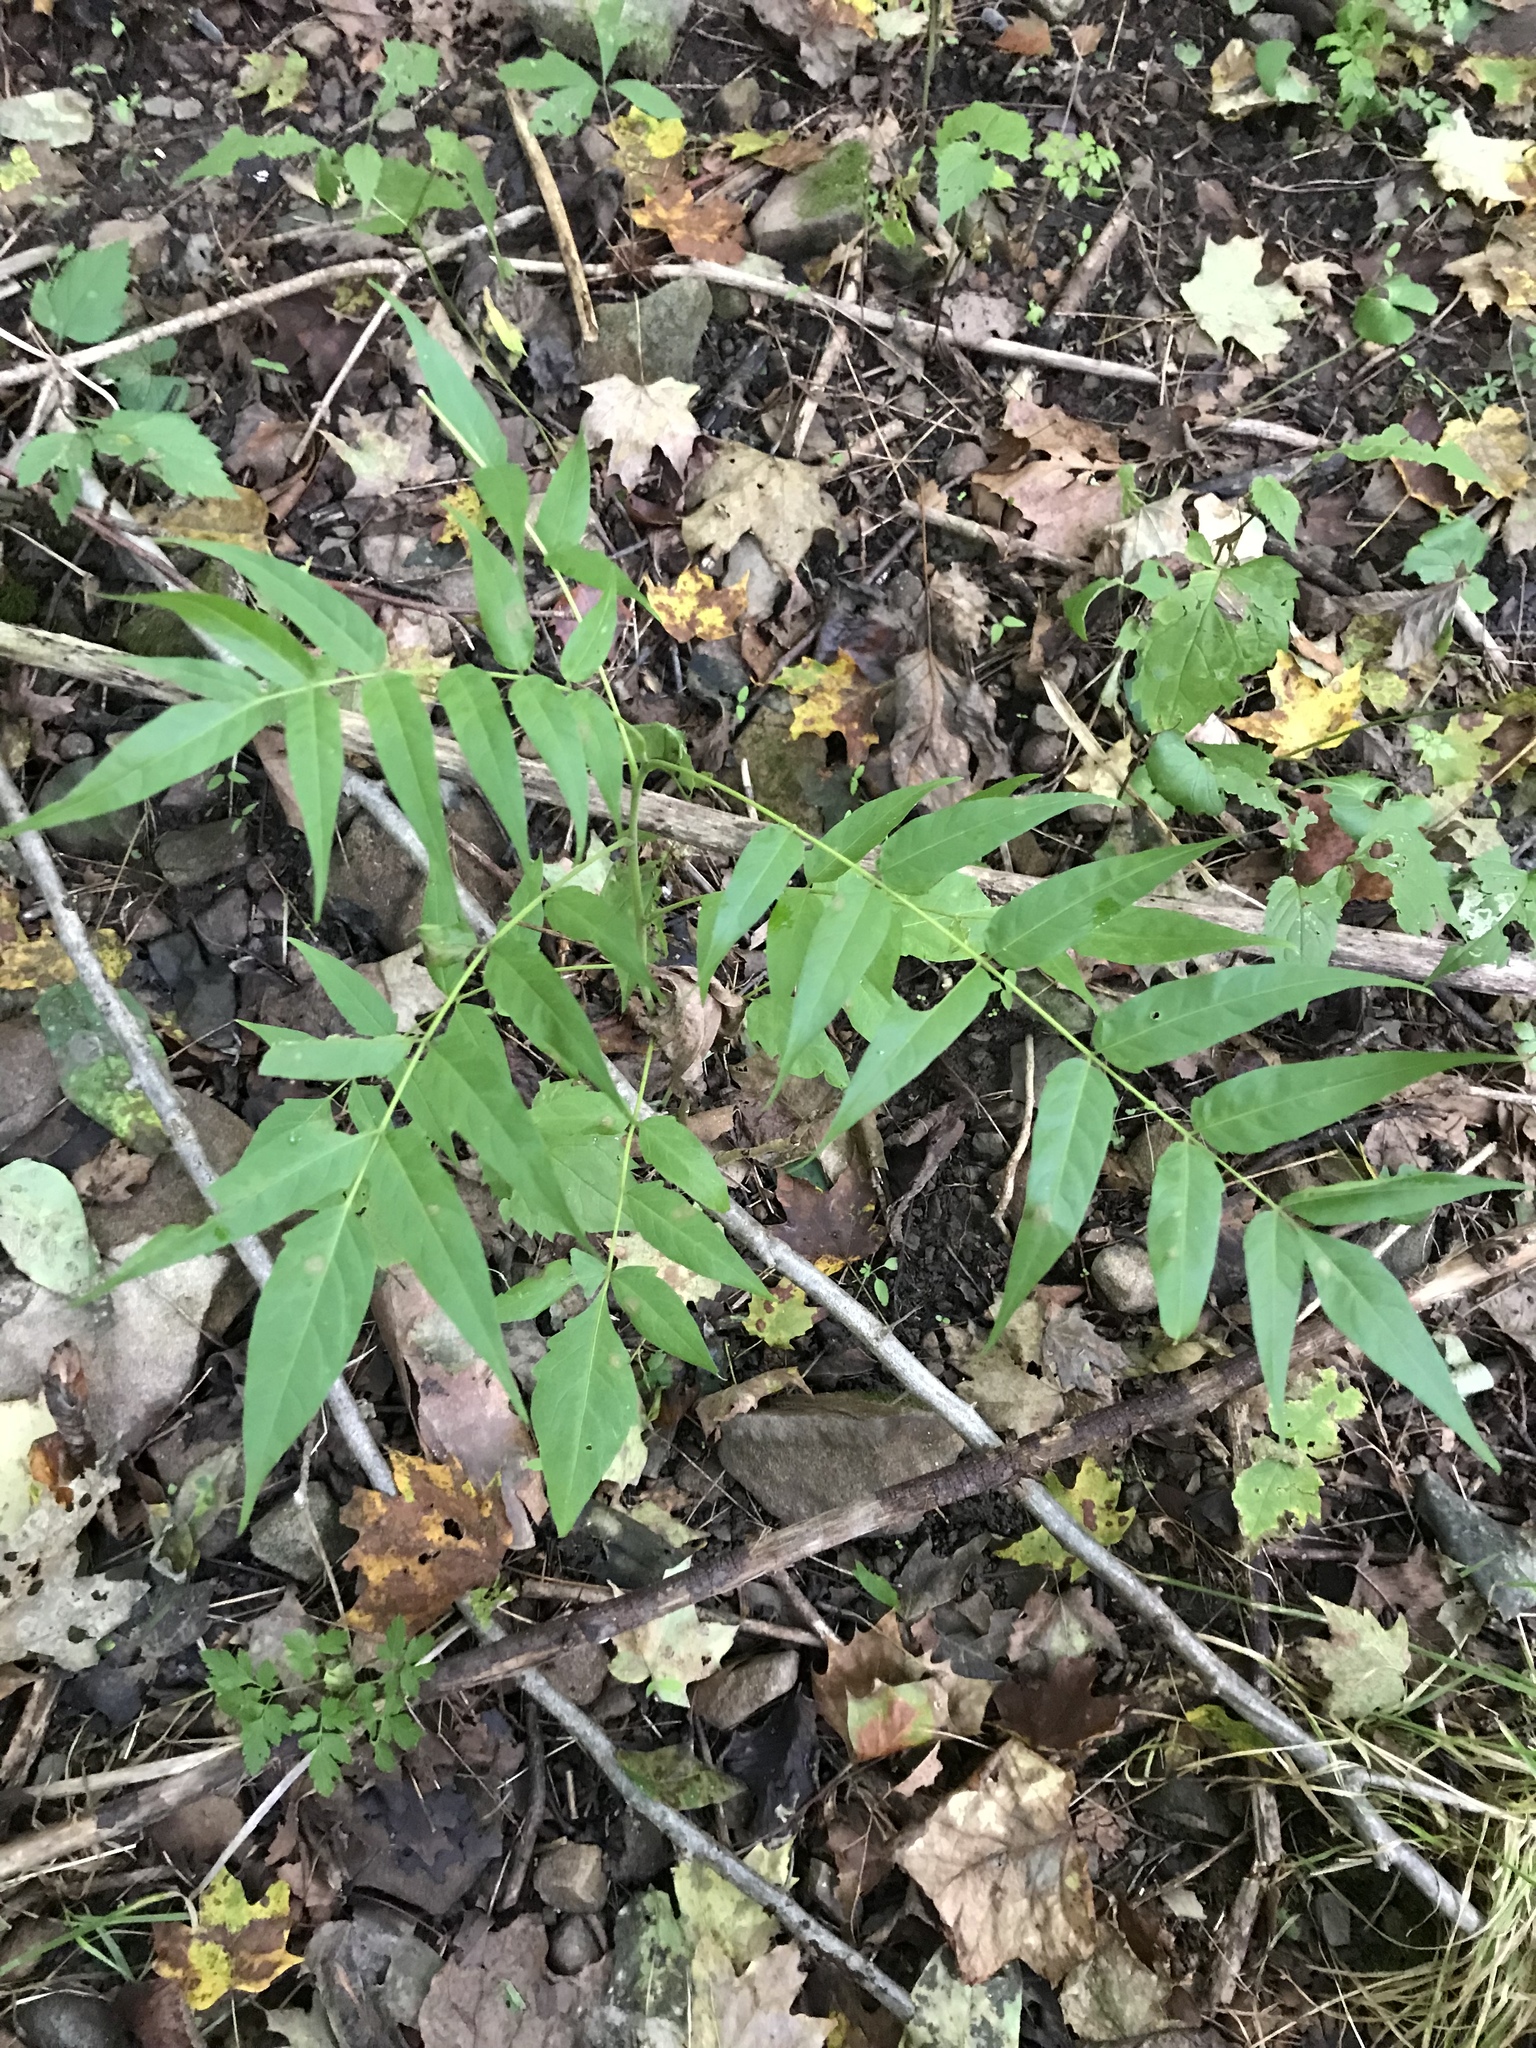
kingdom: Plantae
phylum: Tracheophyta
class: Magnoliopsida
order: Sapindales
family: Simaroubaceae
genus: Ailanthus
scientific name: Ailanthus altissima
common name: Tree-of-heaven
